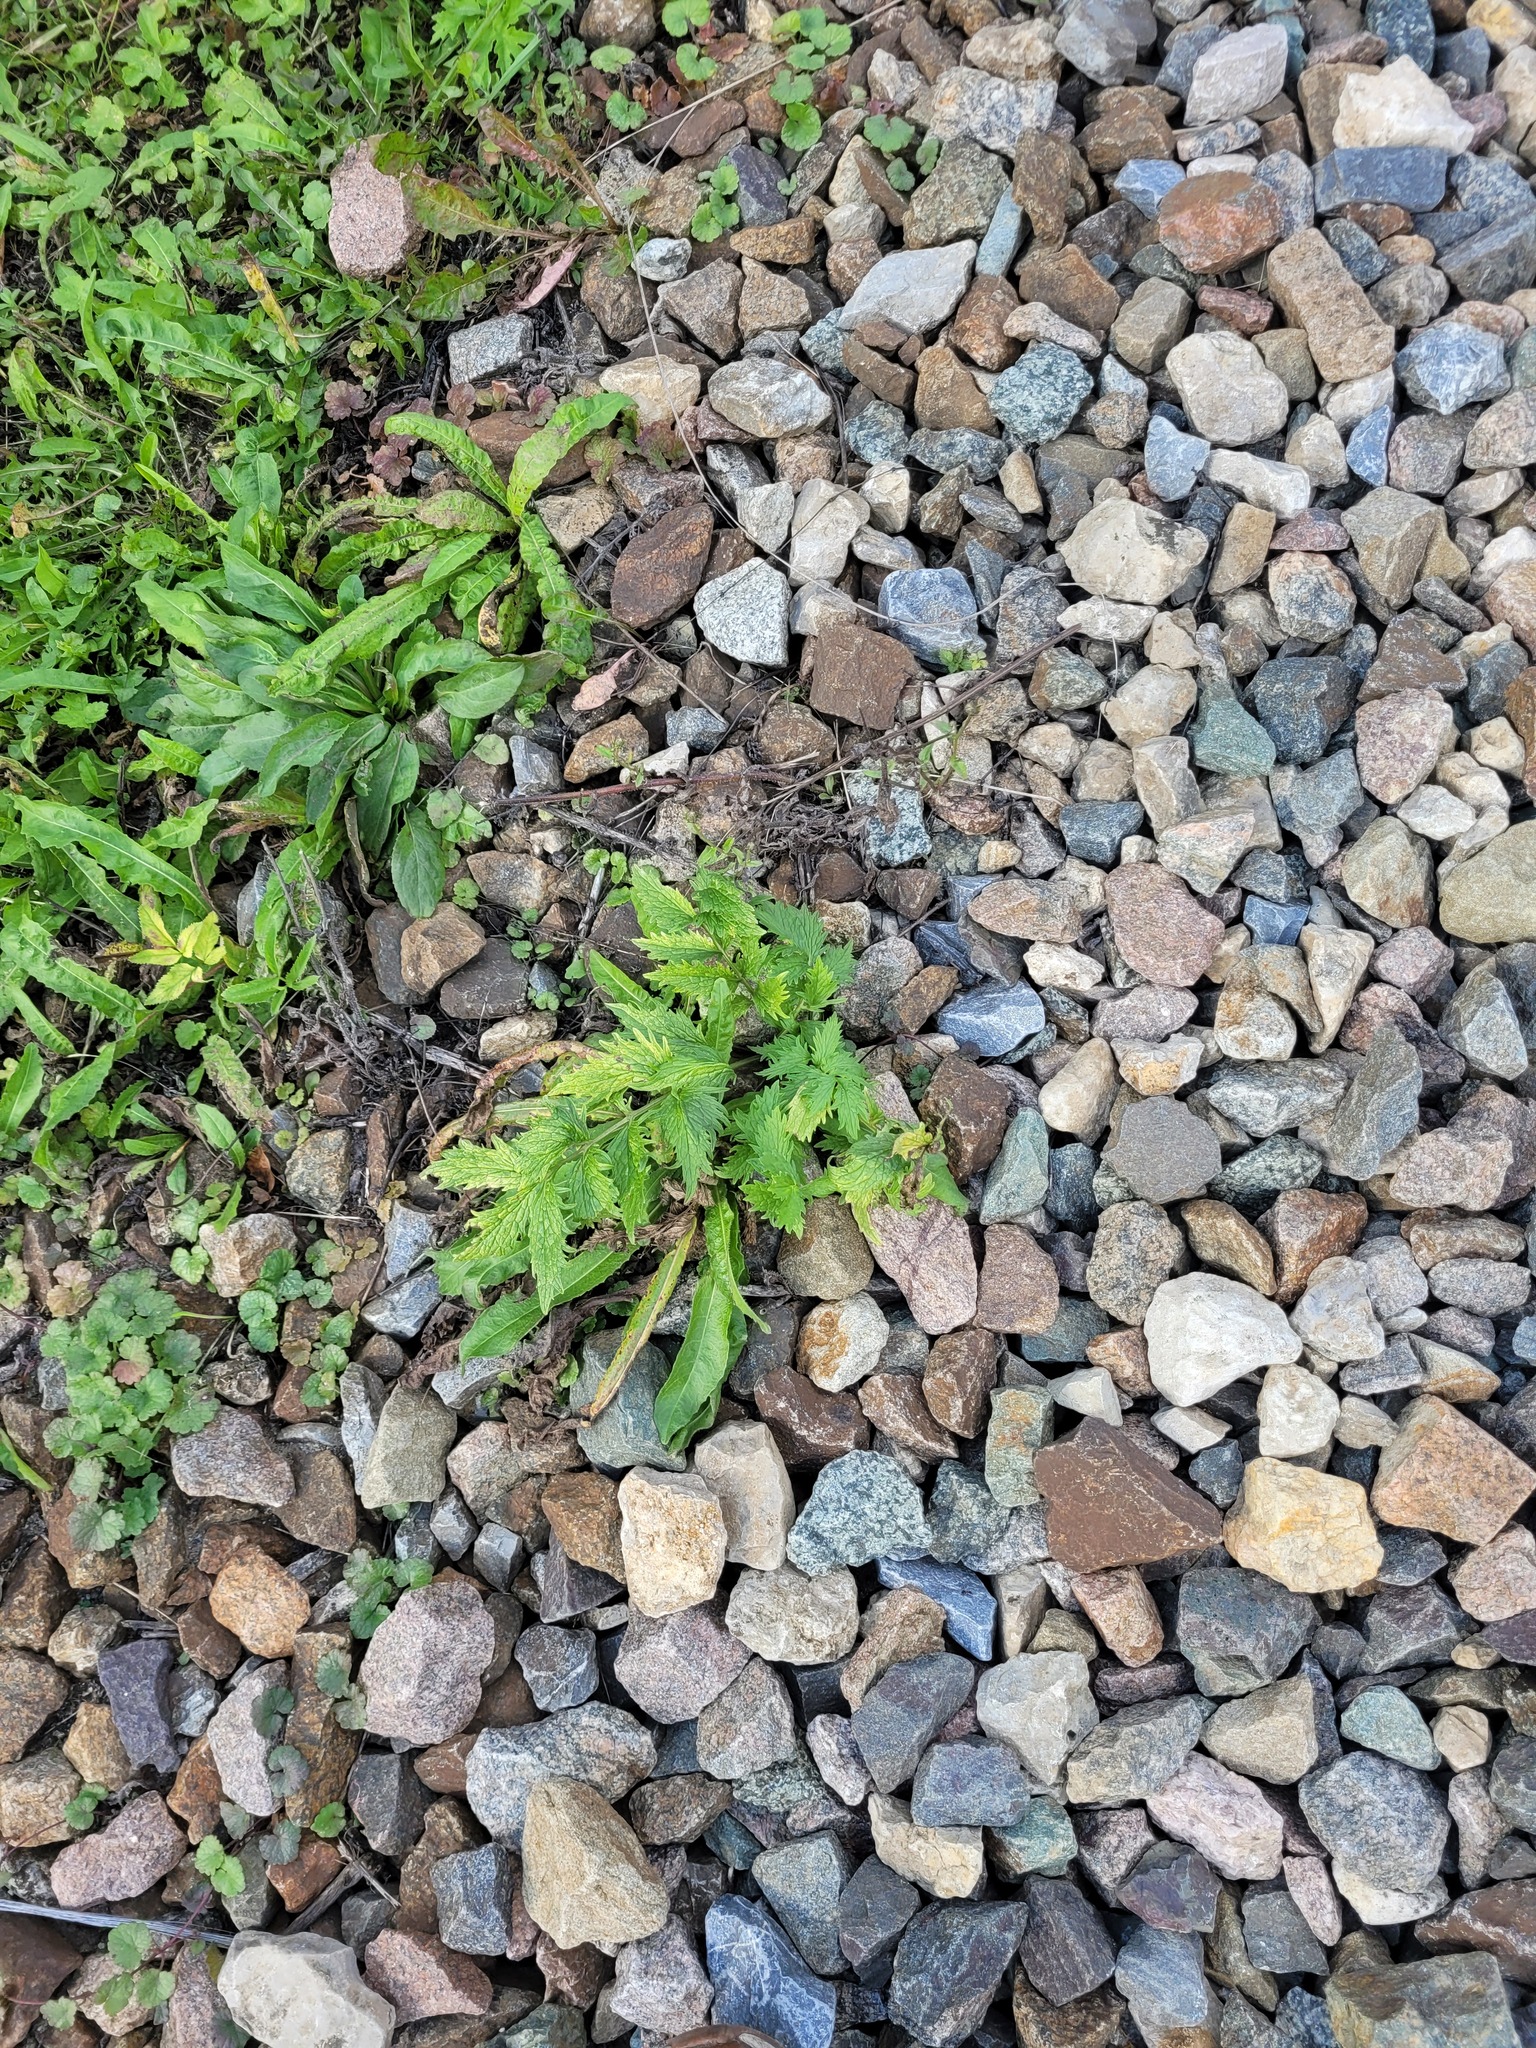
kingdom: Plantae
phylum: Tracheophyta
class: Magnoliopsida
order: Dipsacales
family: Caprifoliaceae
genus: Valeriana
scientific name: Valeriana officinalis
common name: Common valerian
